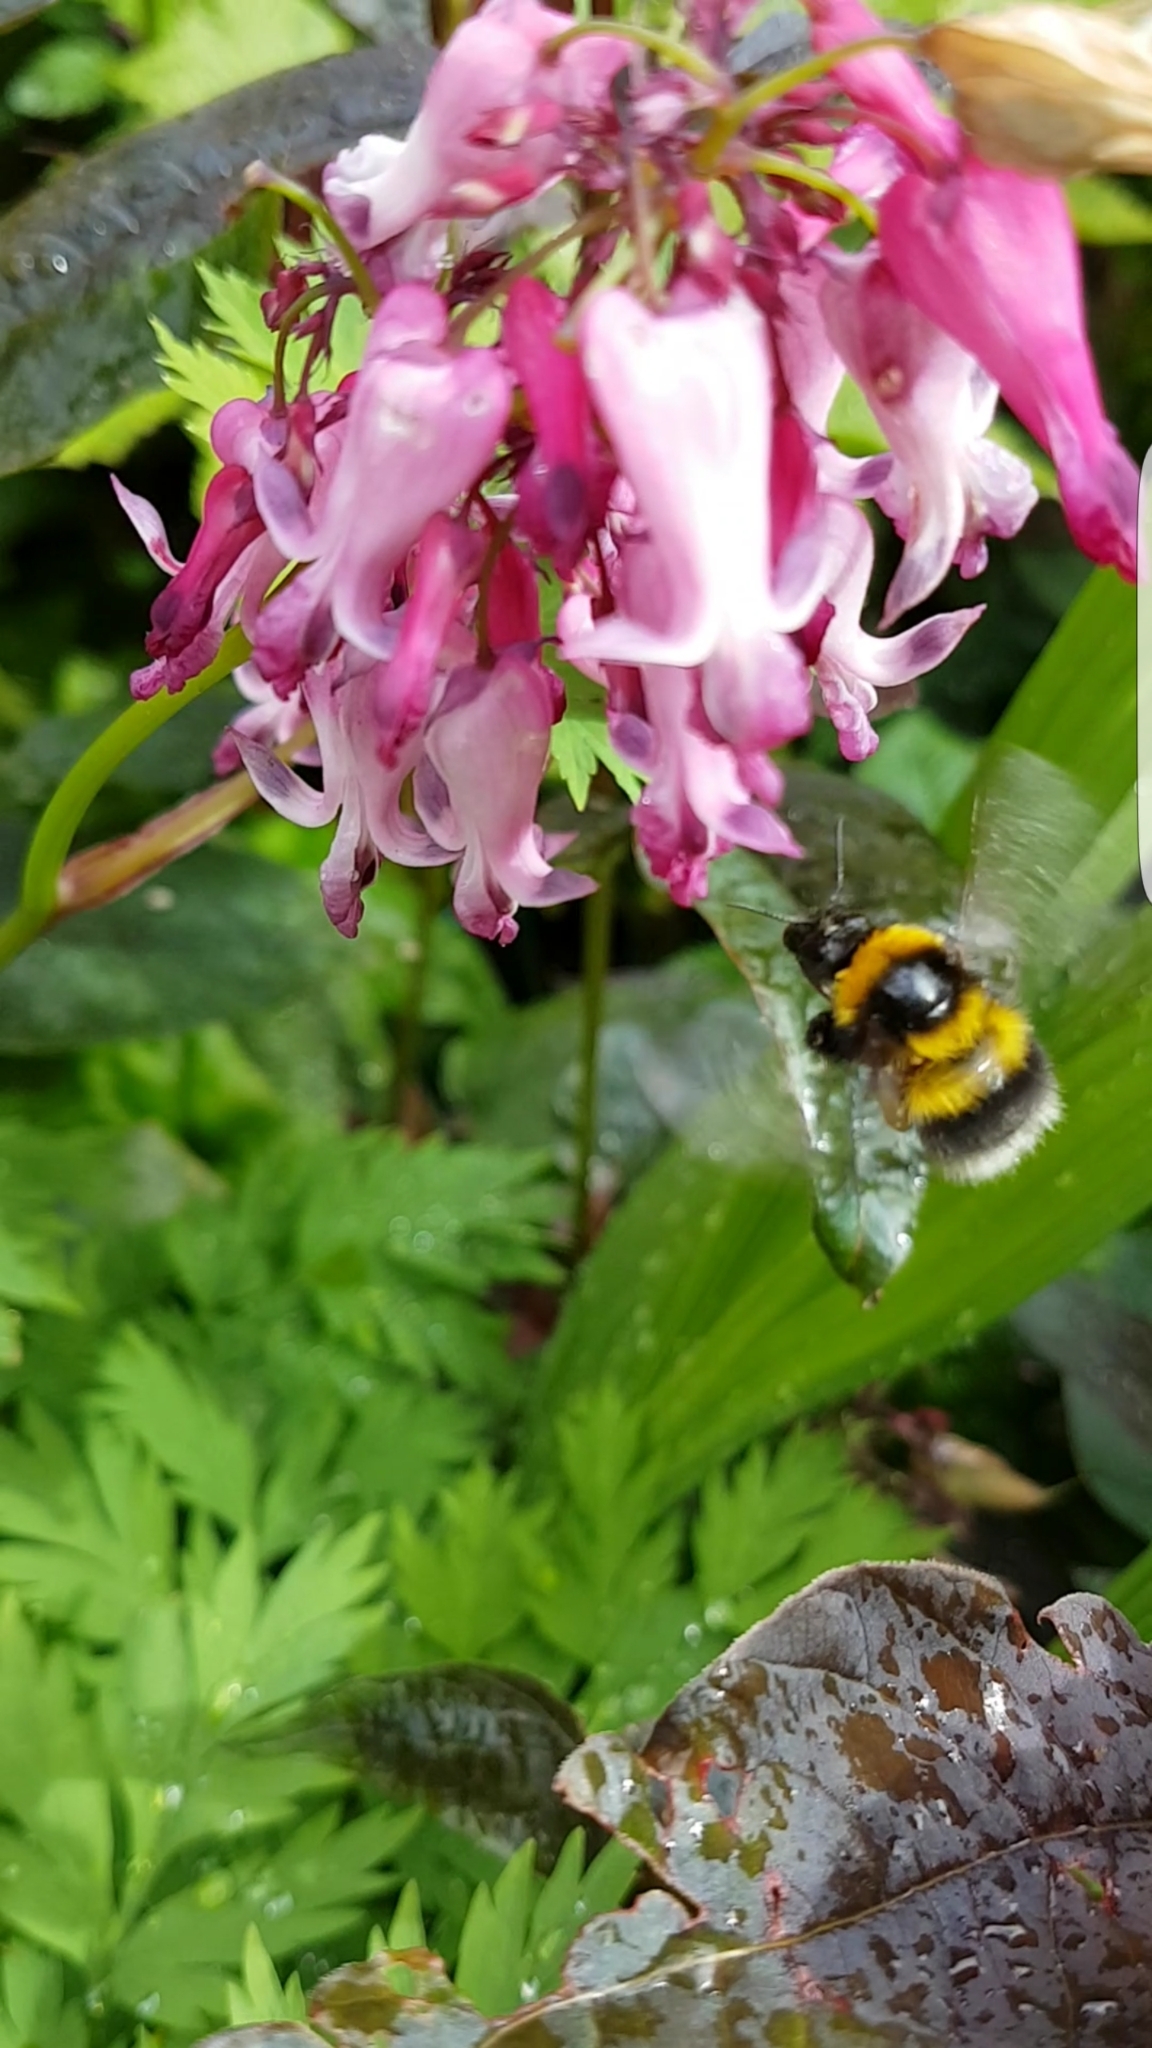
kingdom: Animalia
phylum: Arthropoda
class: Insecta
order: Hymenoptera
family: Apidae
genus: Bombus
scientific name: Bombus hortorum
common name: Garden bumblebee
